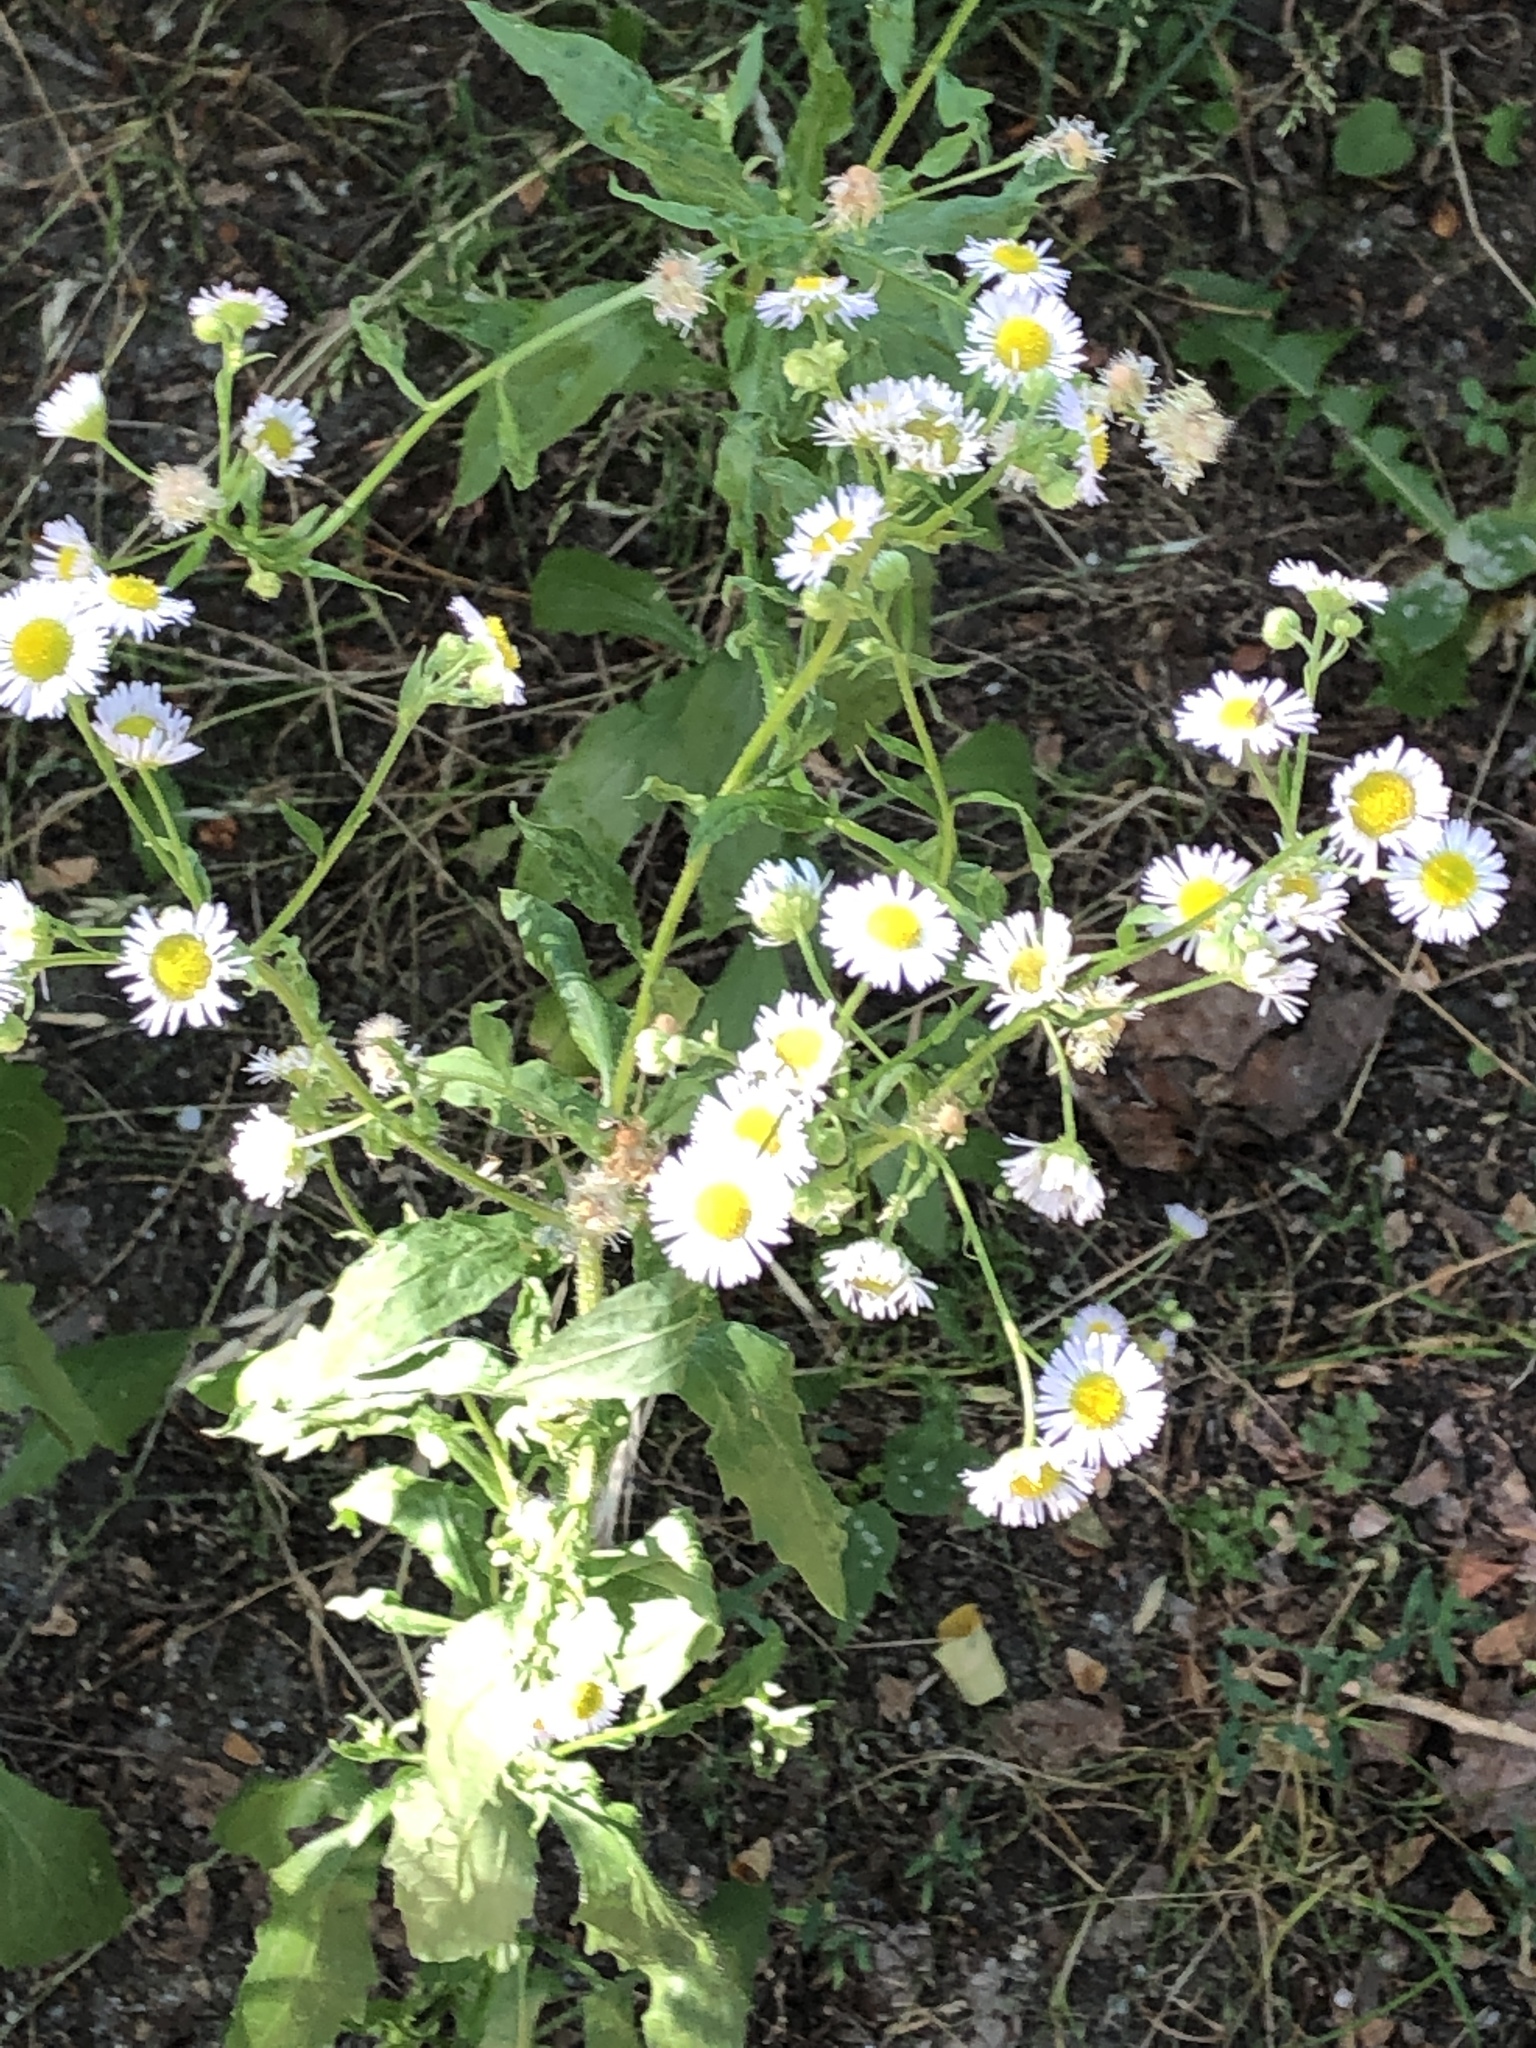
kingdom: Plantae
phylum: Tracheophyta
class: Magnoliopsida
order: Asterales
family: Asteraceae
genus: Erigeron
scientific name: Erigeron annuus
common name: Tall fleabane
